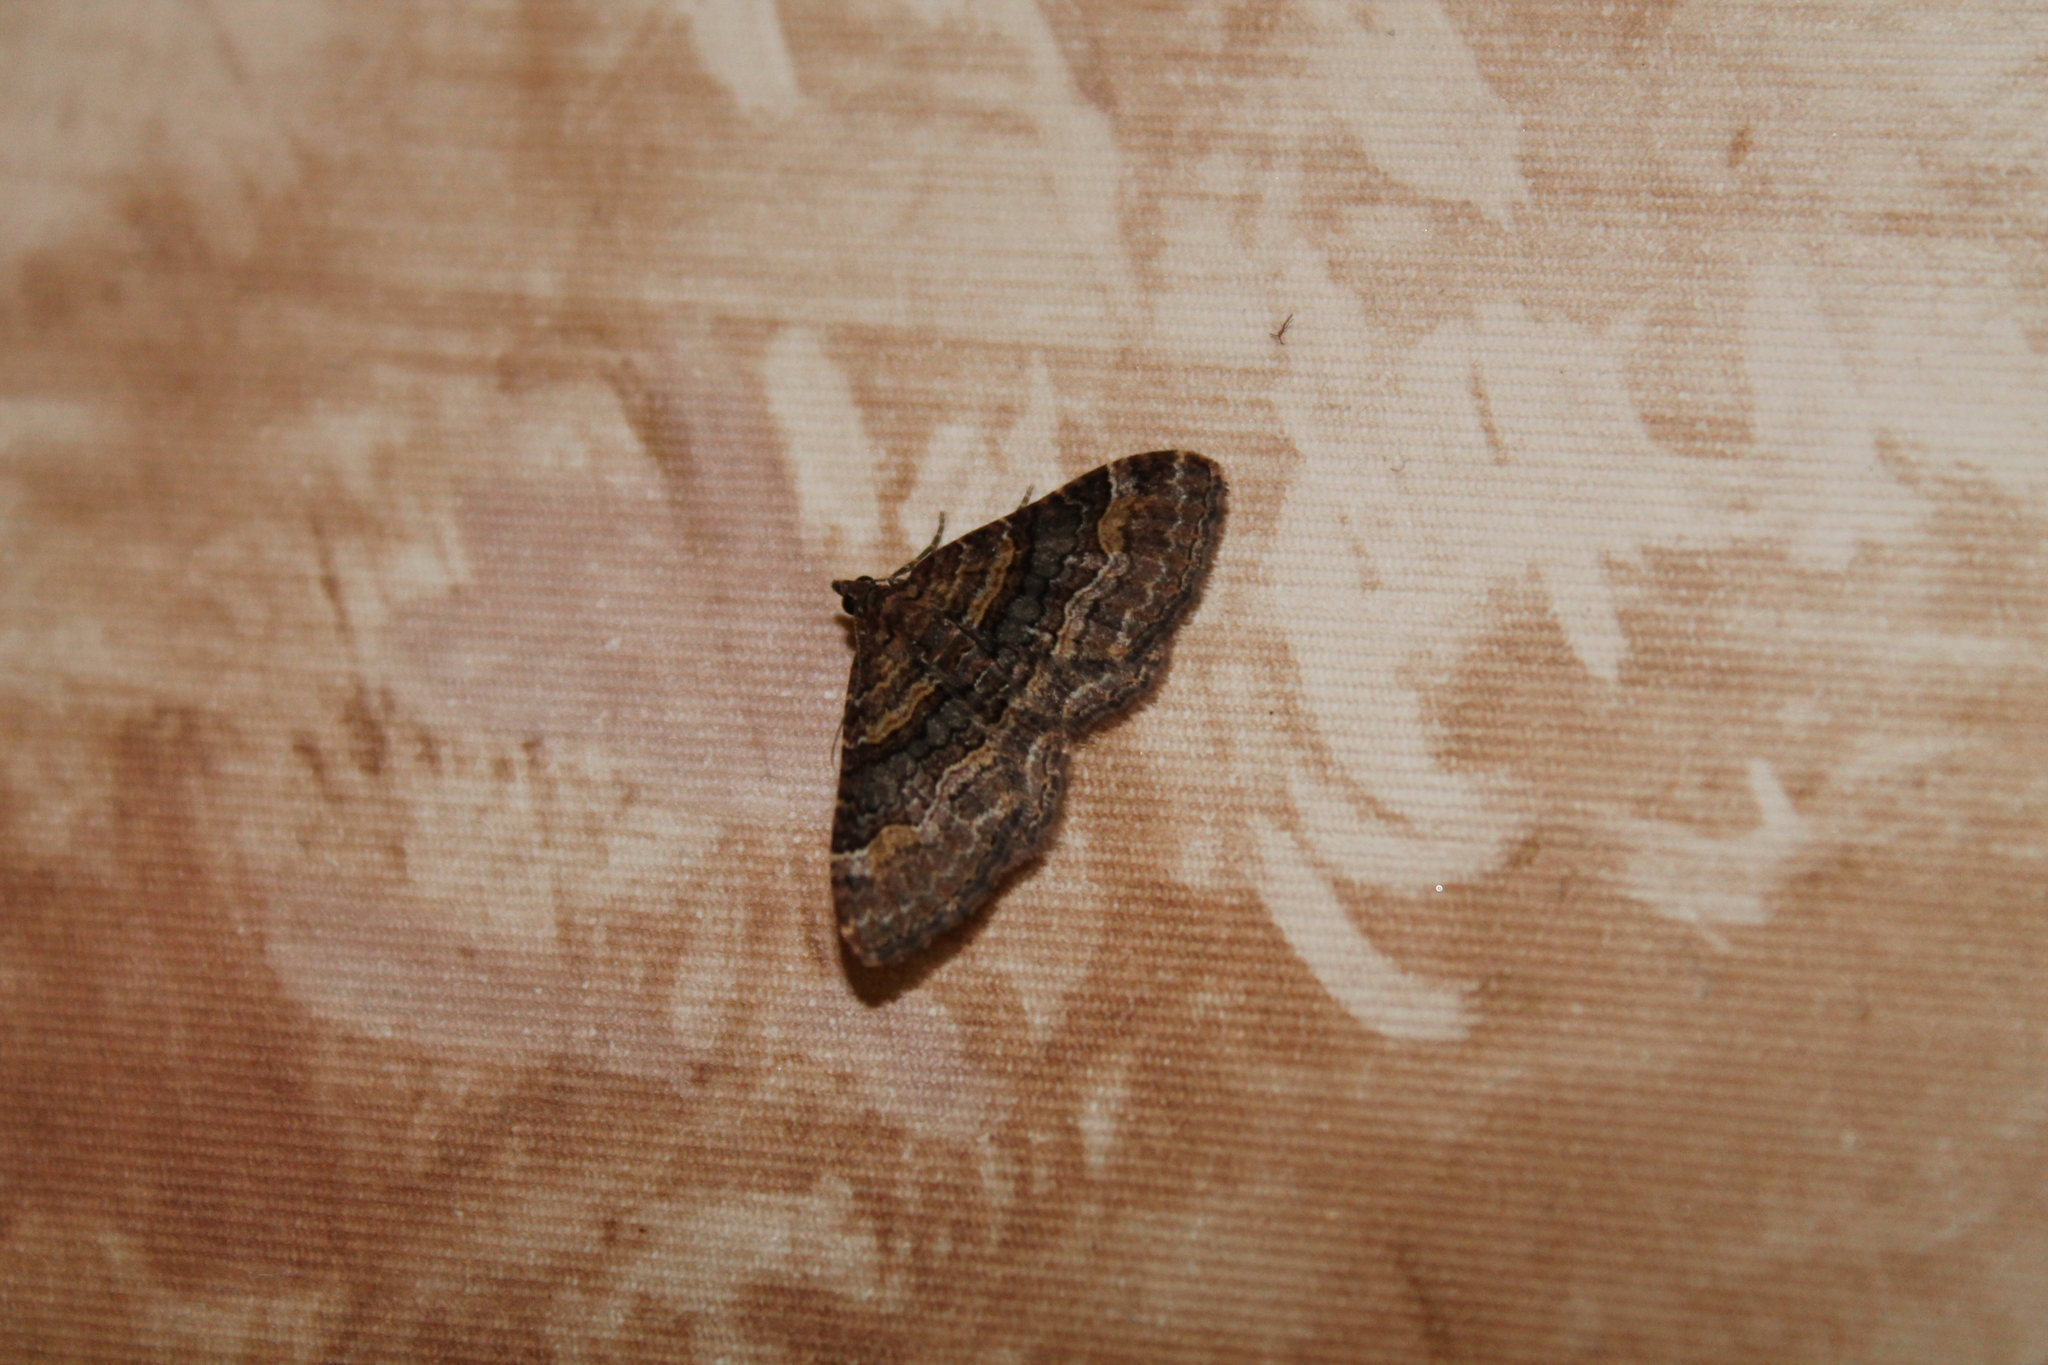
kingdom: Animalia
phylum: Arthropoda
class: Insecta
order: Lepidoptera
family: Geometridae
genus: Epyaxa
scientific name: Epyaxa lucidata
